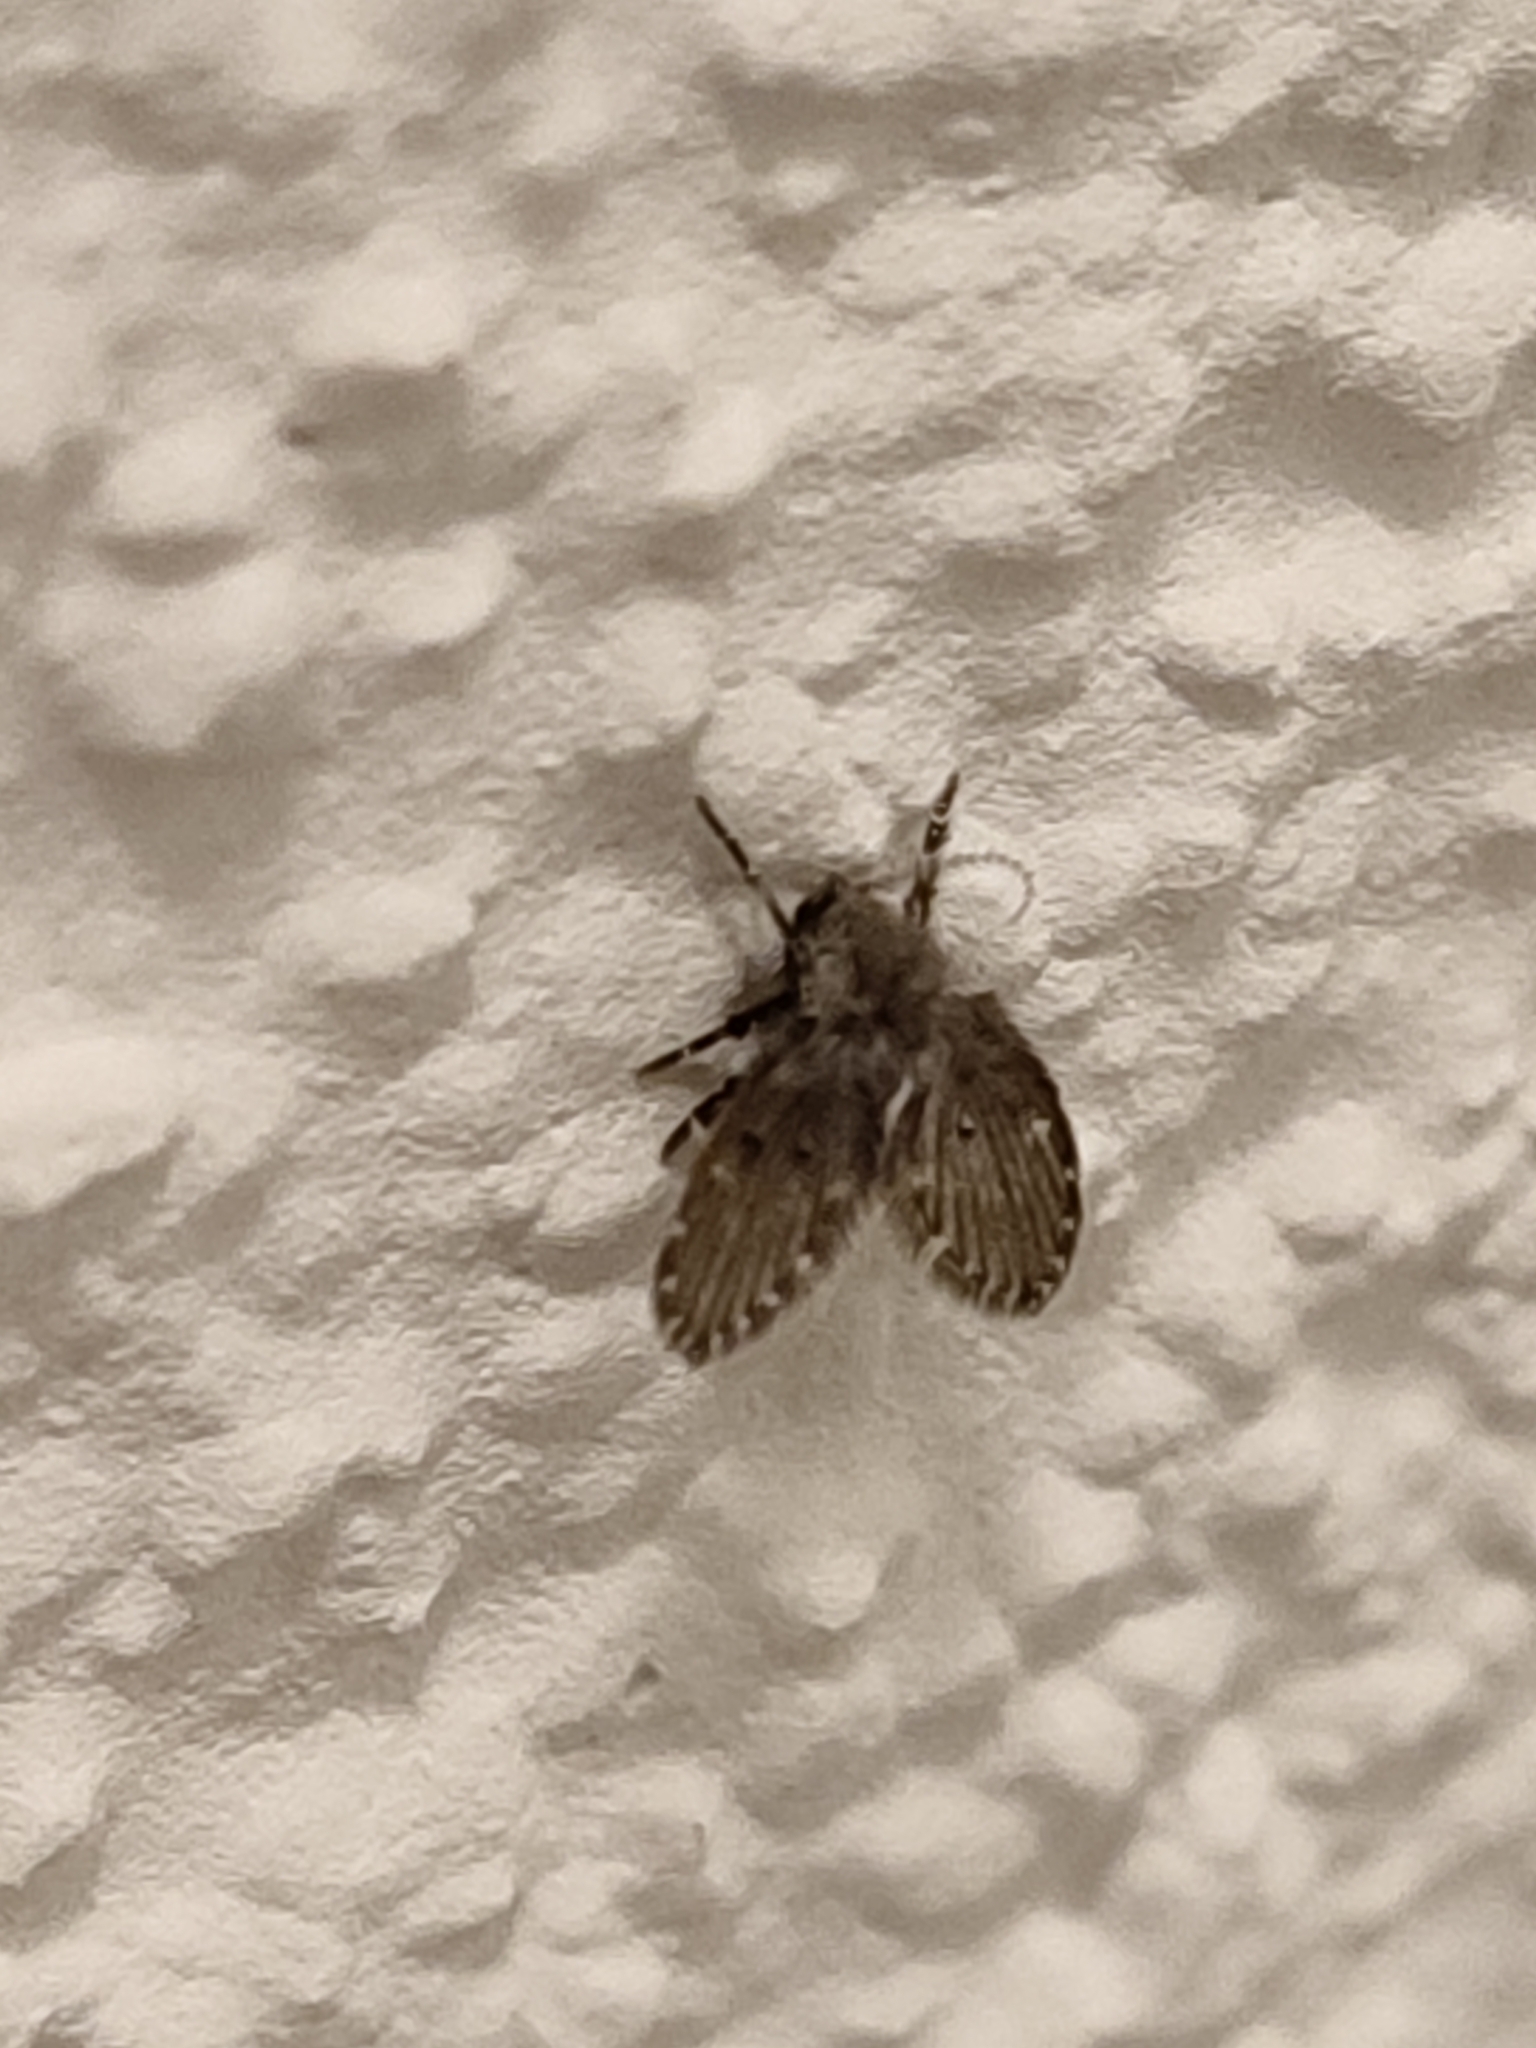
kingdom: Animalia
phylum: Arthropoda
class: Insecta
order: Diptera
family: Psychodidae
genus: Clogmia
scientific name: Clogmia albipunctatus
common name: White-spotted moth fly
